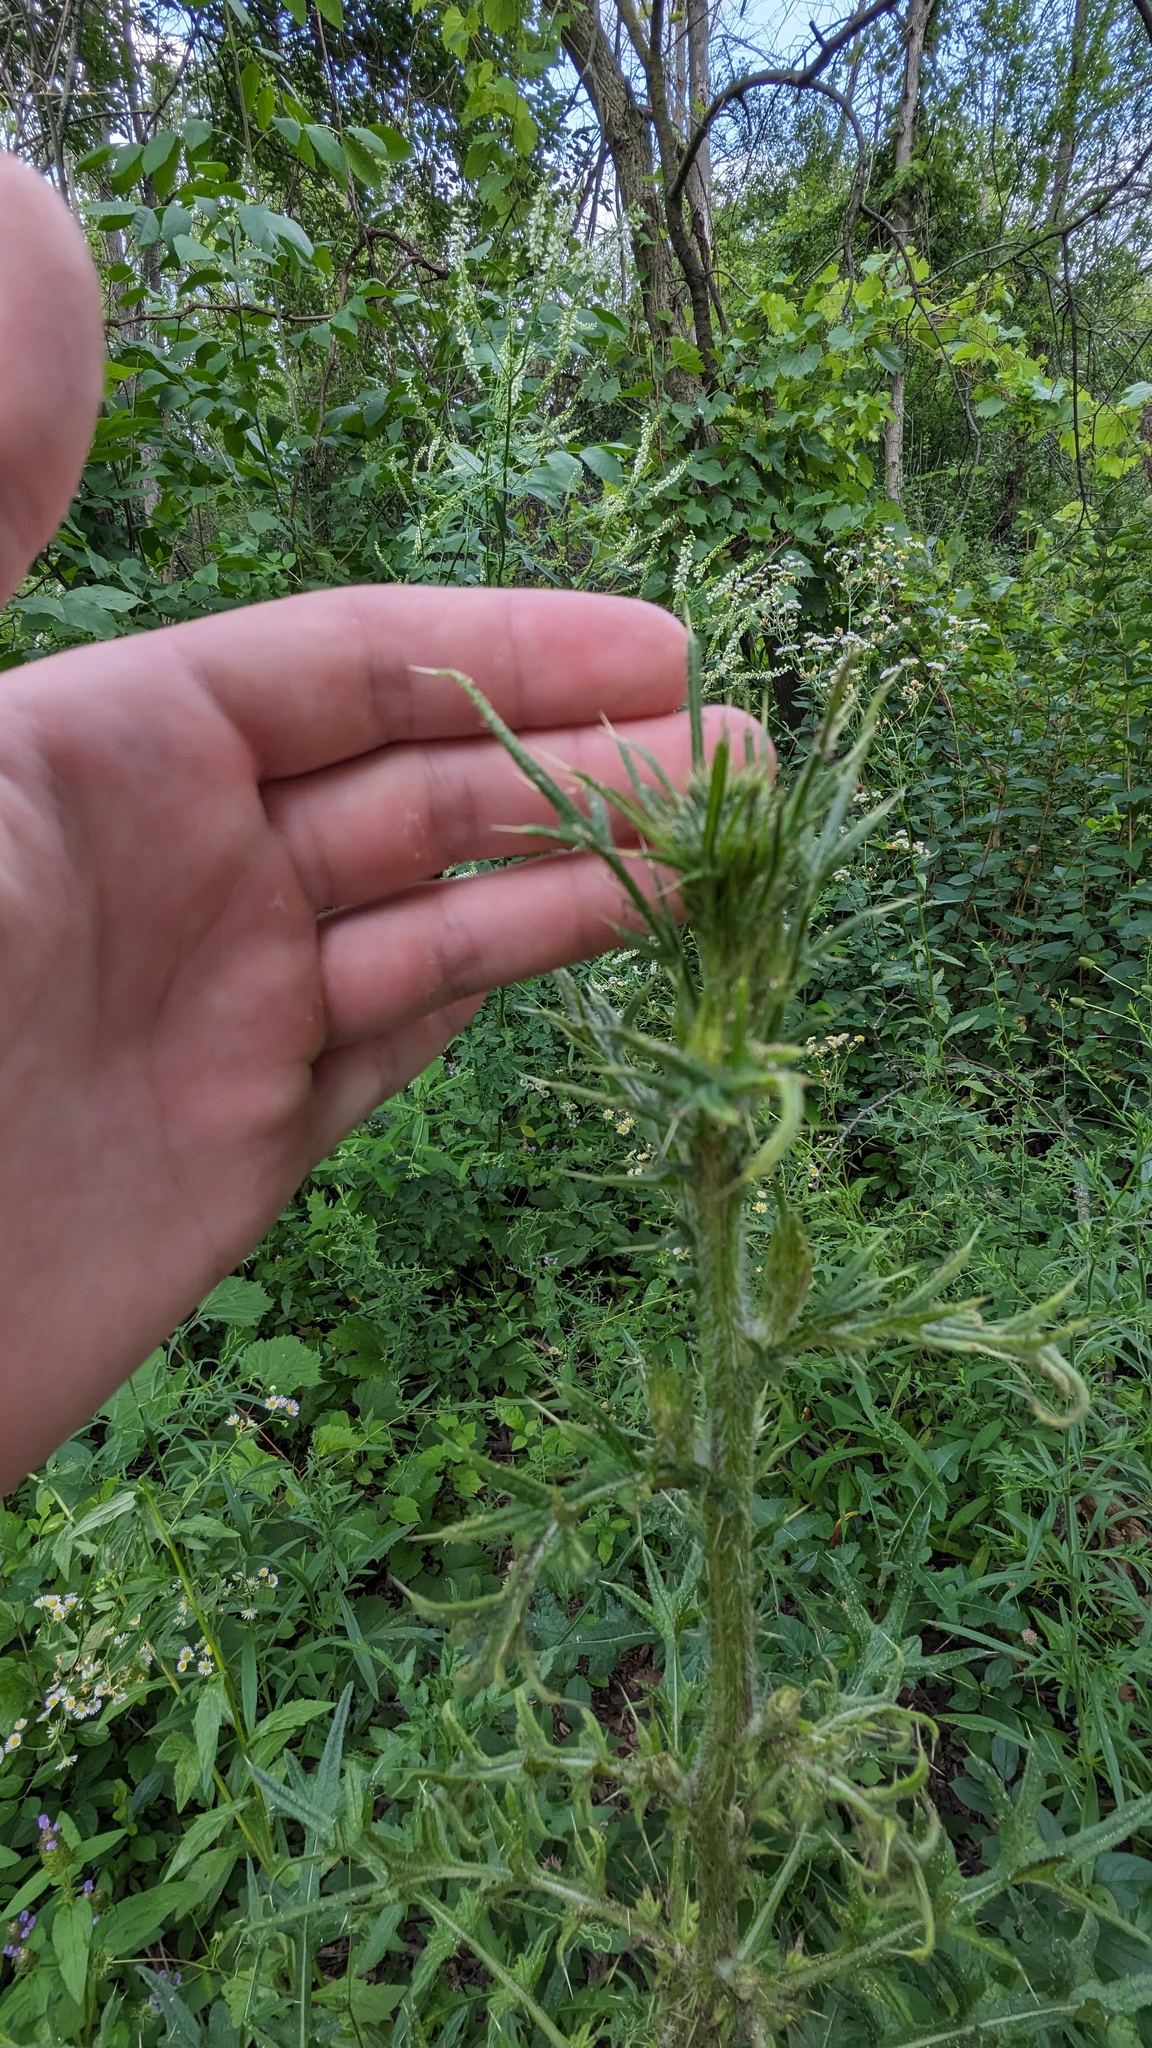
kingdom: Plantae
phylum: Tracheophyta
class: Magnoliopsida
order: Asterales
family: Asteraceae
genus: Cirsium
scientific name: Cirsium vulgare
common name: Bull thistle
